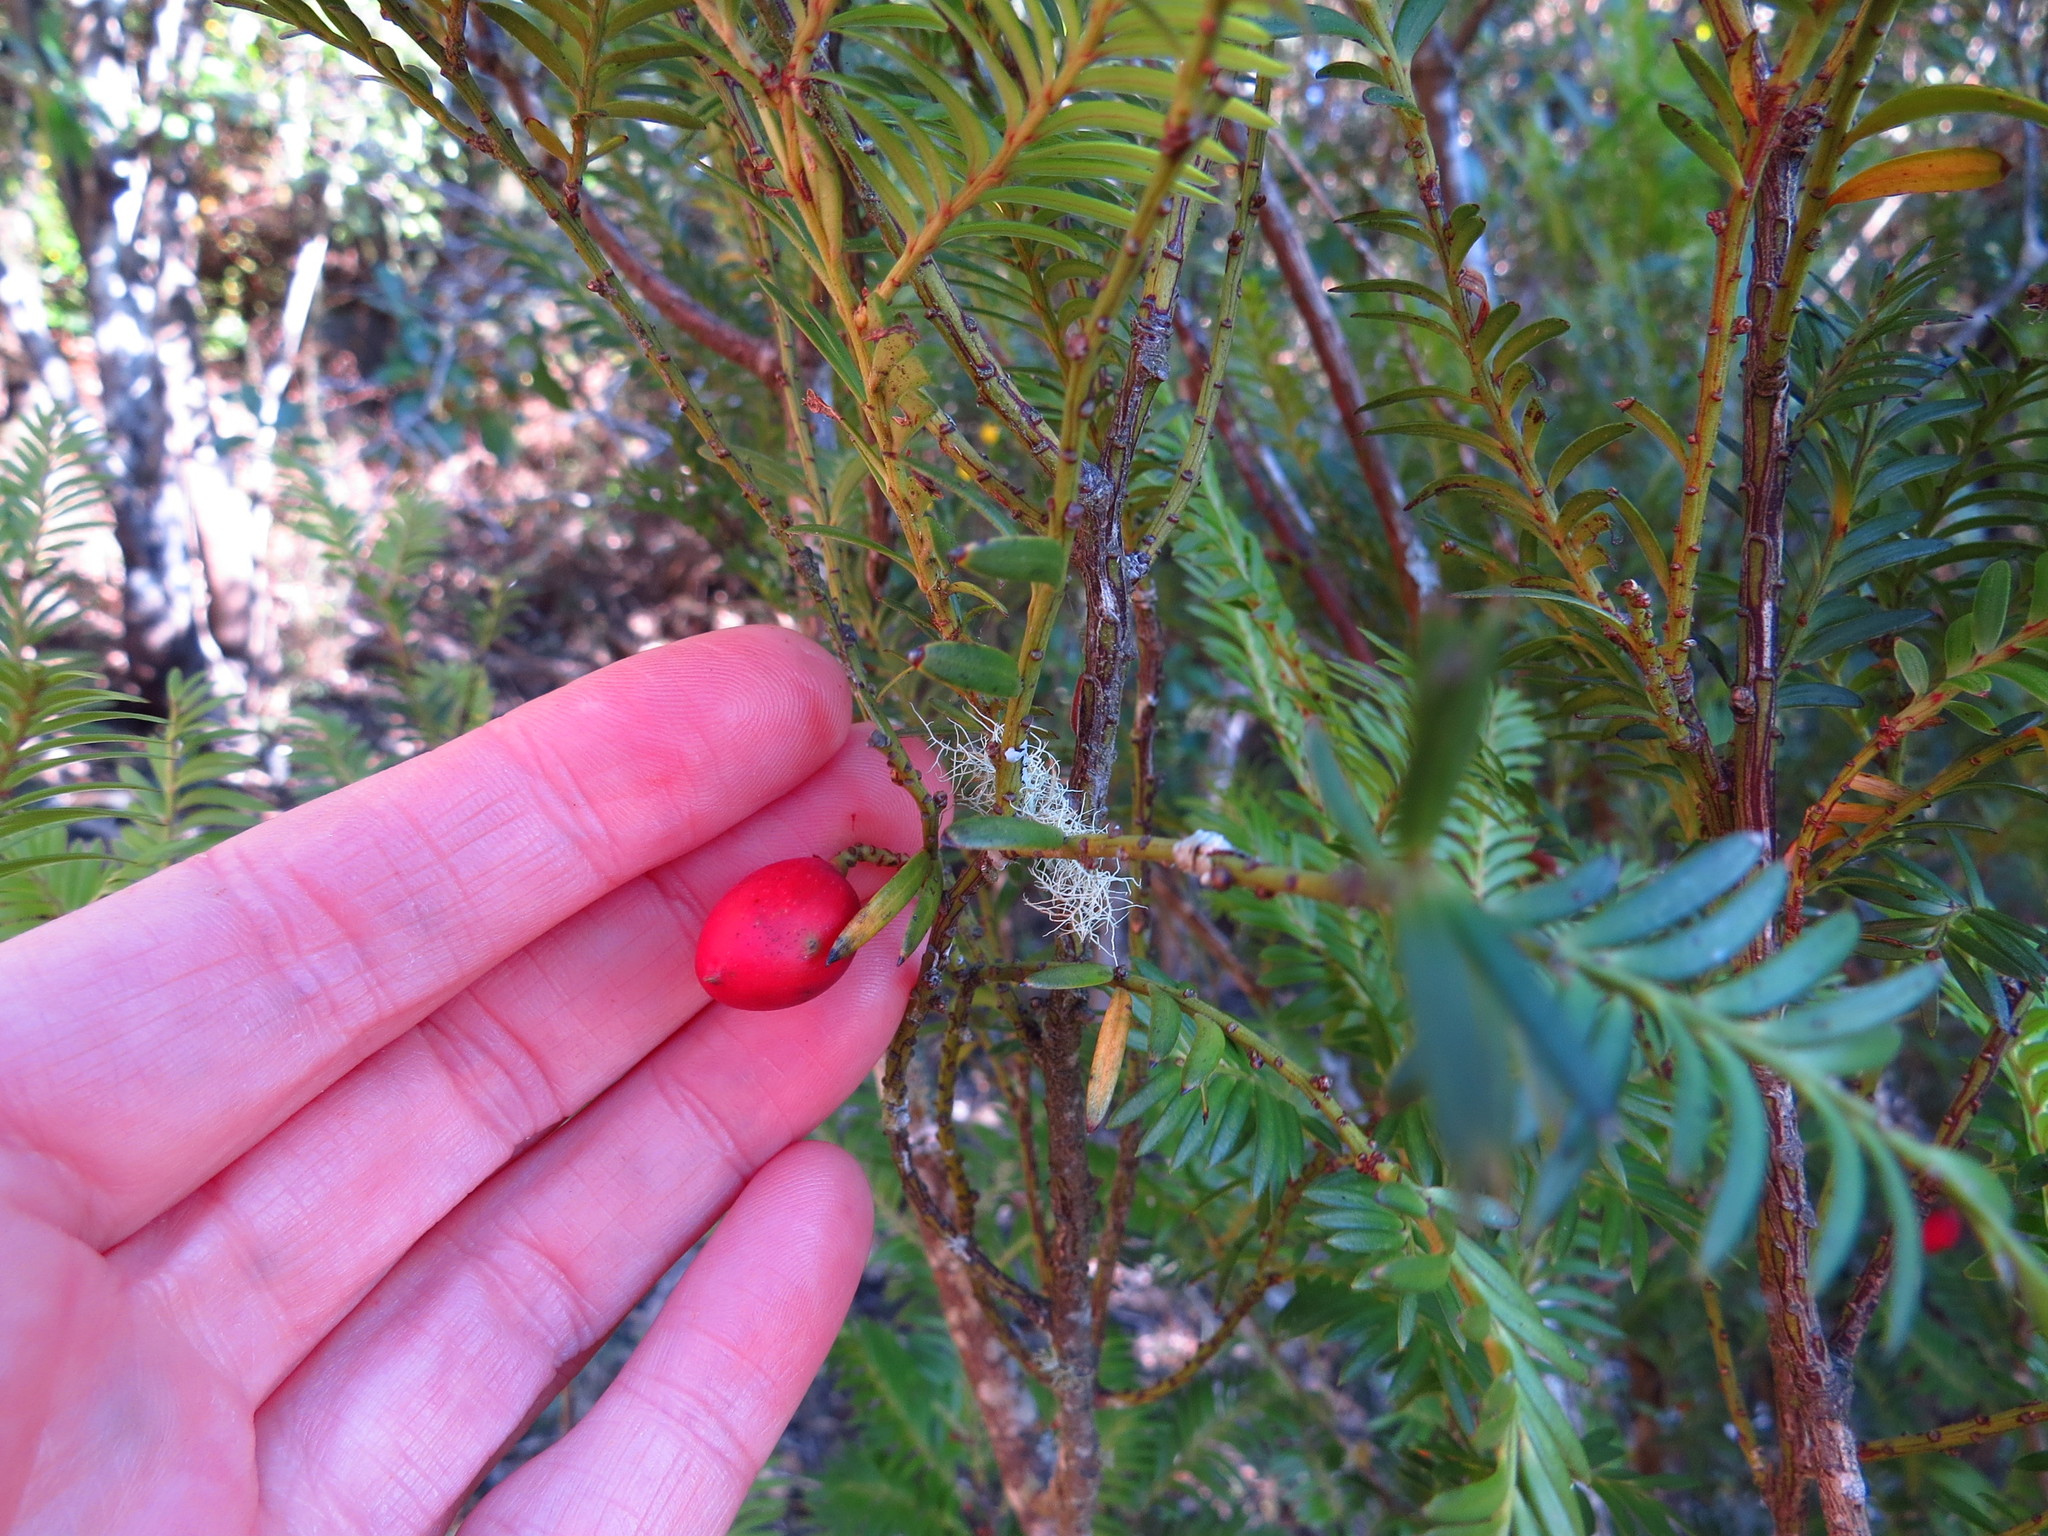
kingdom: Plantae
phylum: Tracheophyta
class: Pinopsida
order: Pinales
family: Podocarpaceae
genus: Prumnopitys
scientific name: Prumnopitys ferruginea
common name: Brown pine
